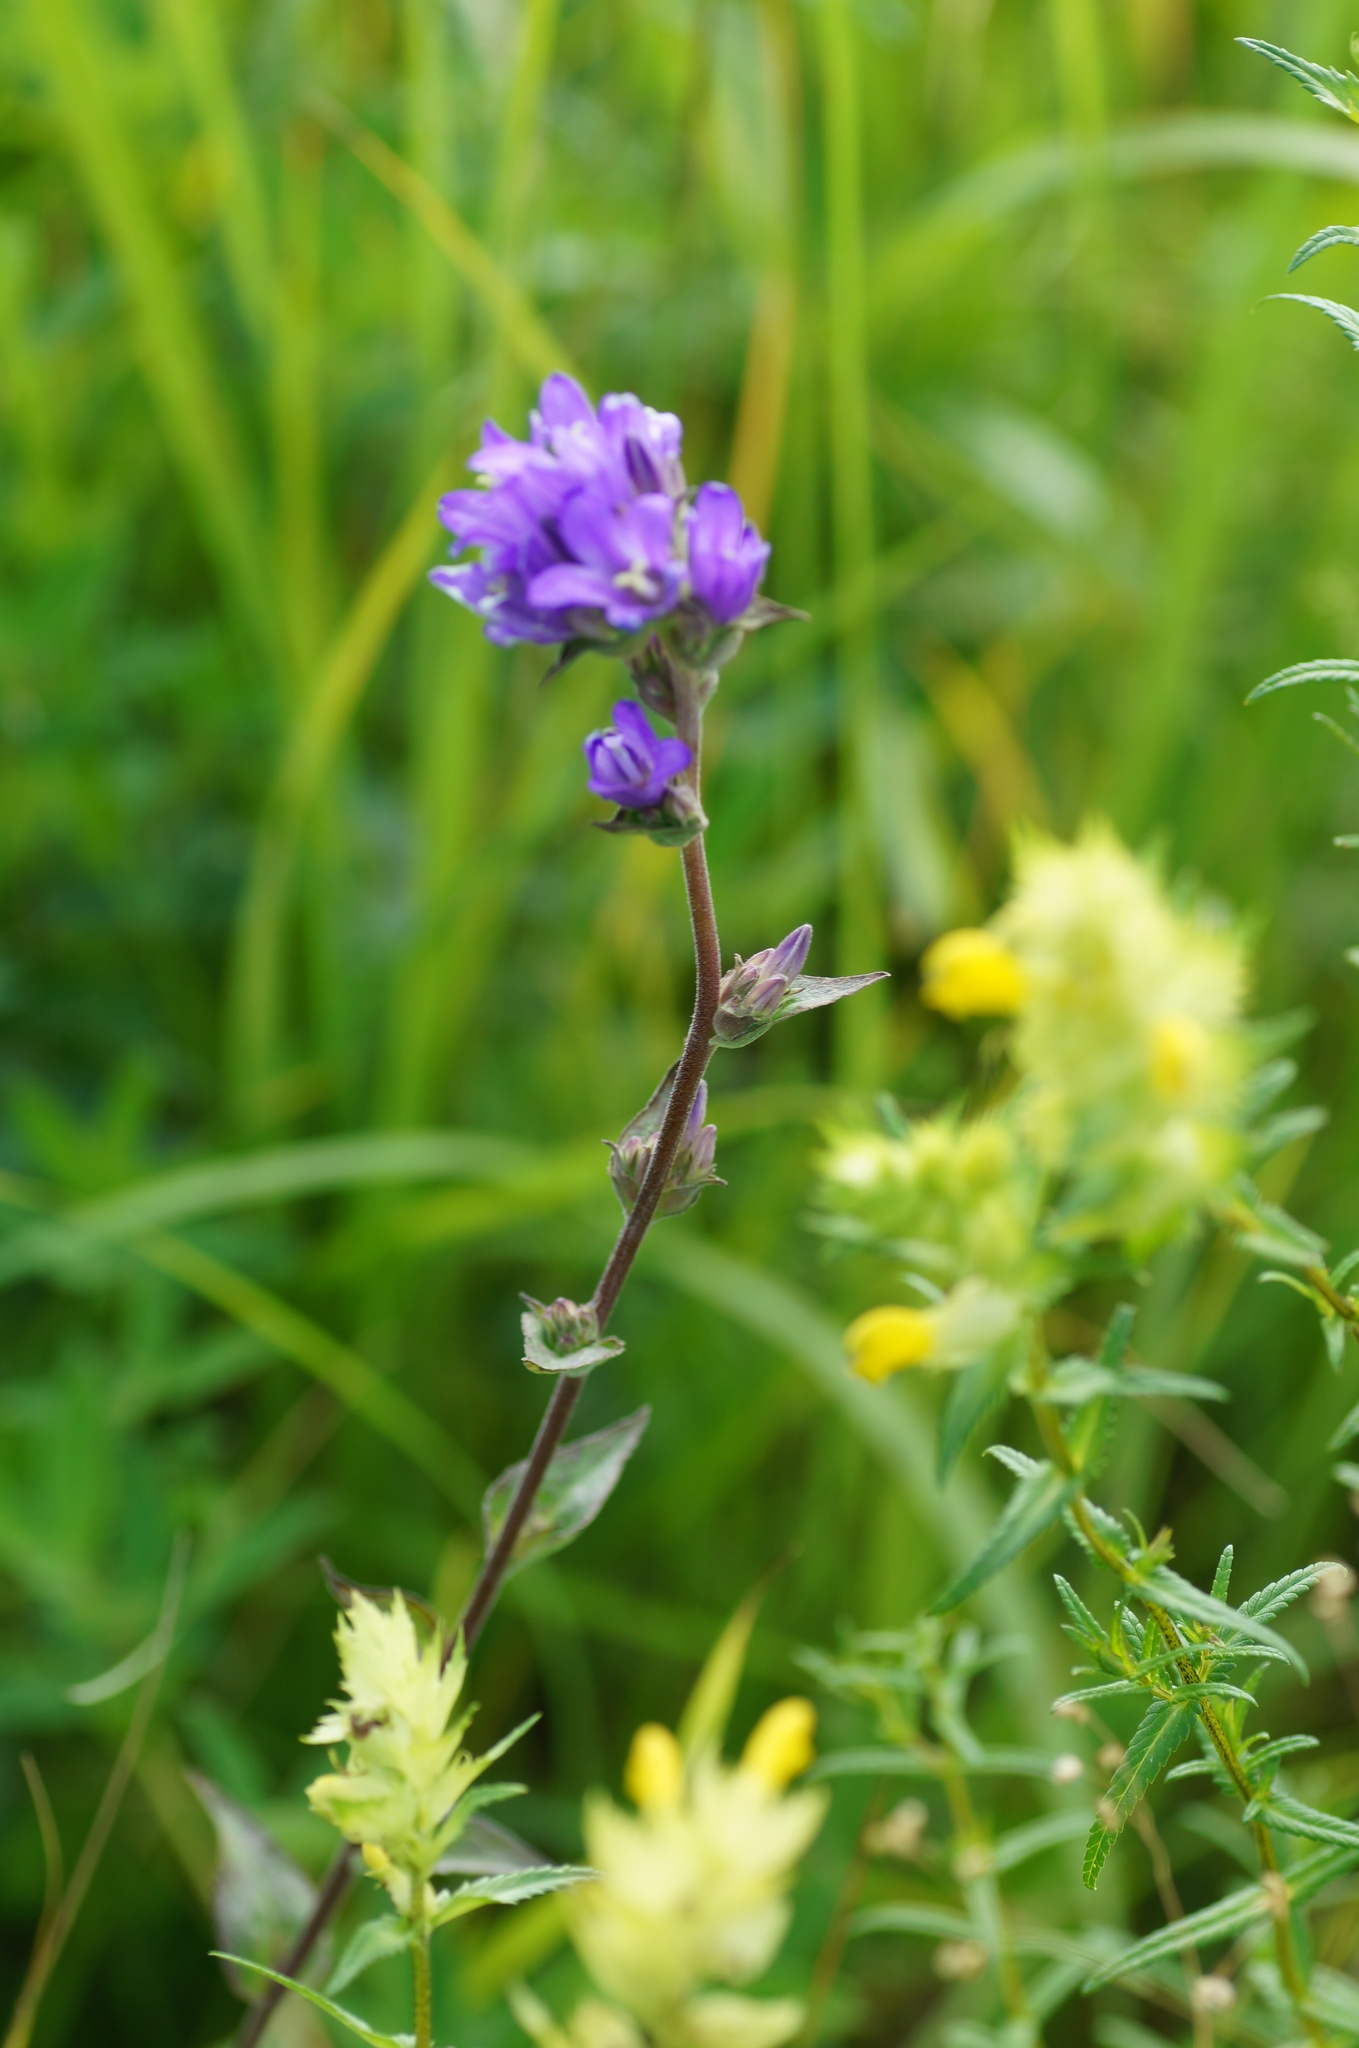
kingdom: Plantae
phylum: Tracheophyta
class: Magnoliopsida
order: Asterales
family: Campanulaceae
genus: Campanula
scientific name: Campanula glomerata
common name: Clustered bellflower
